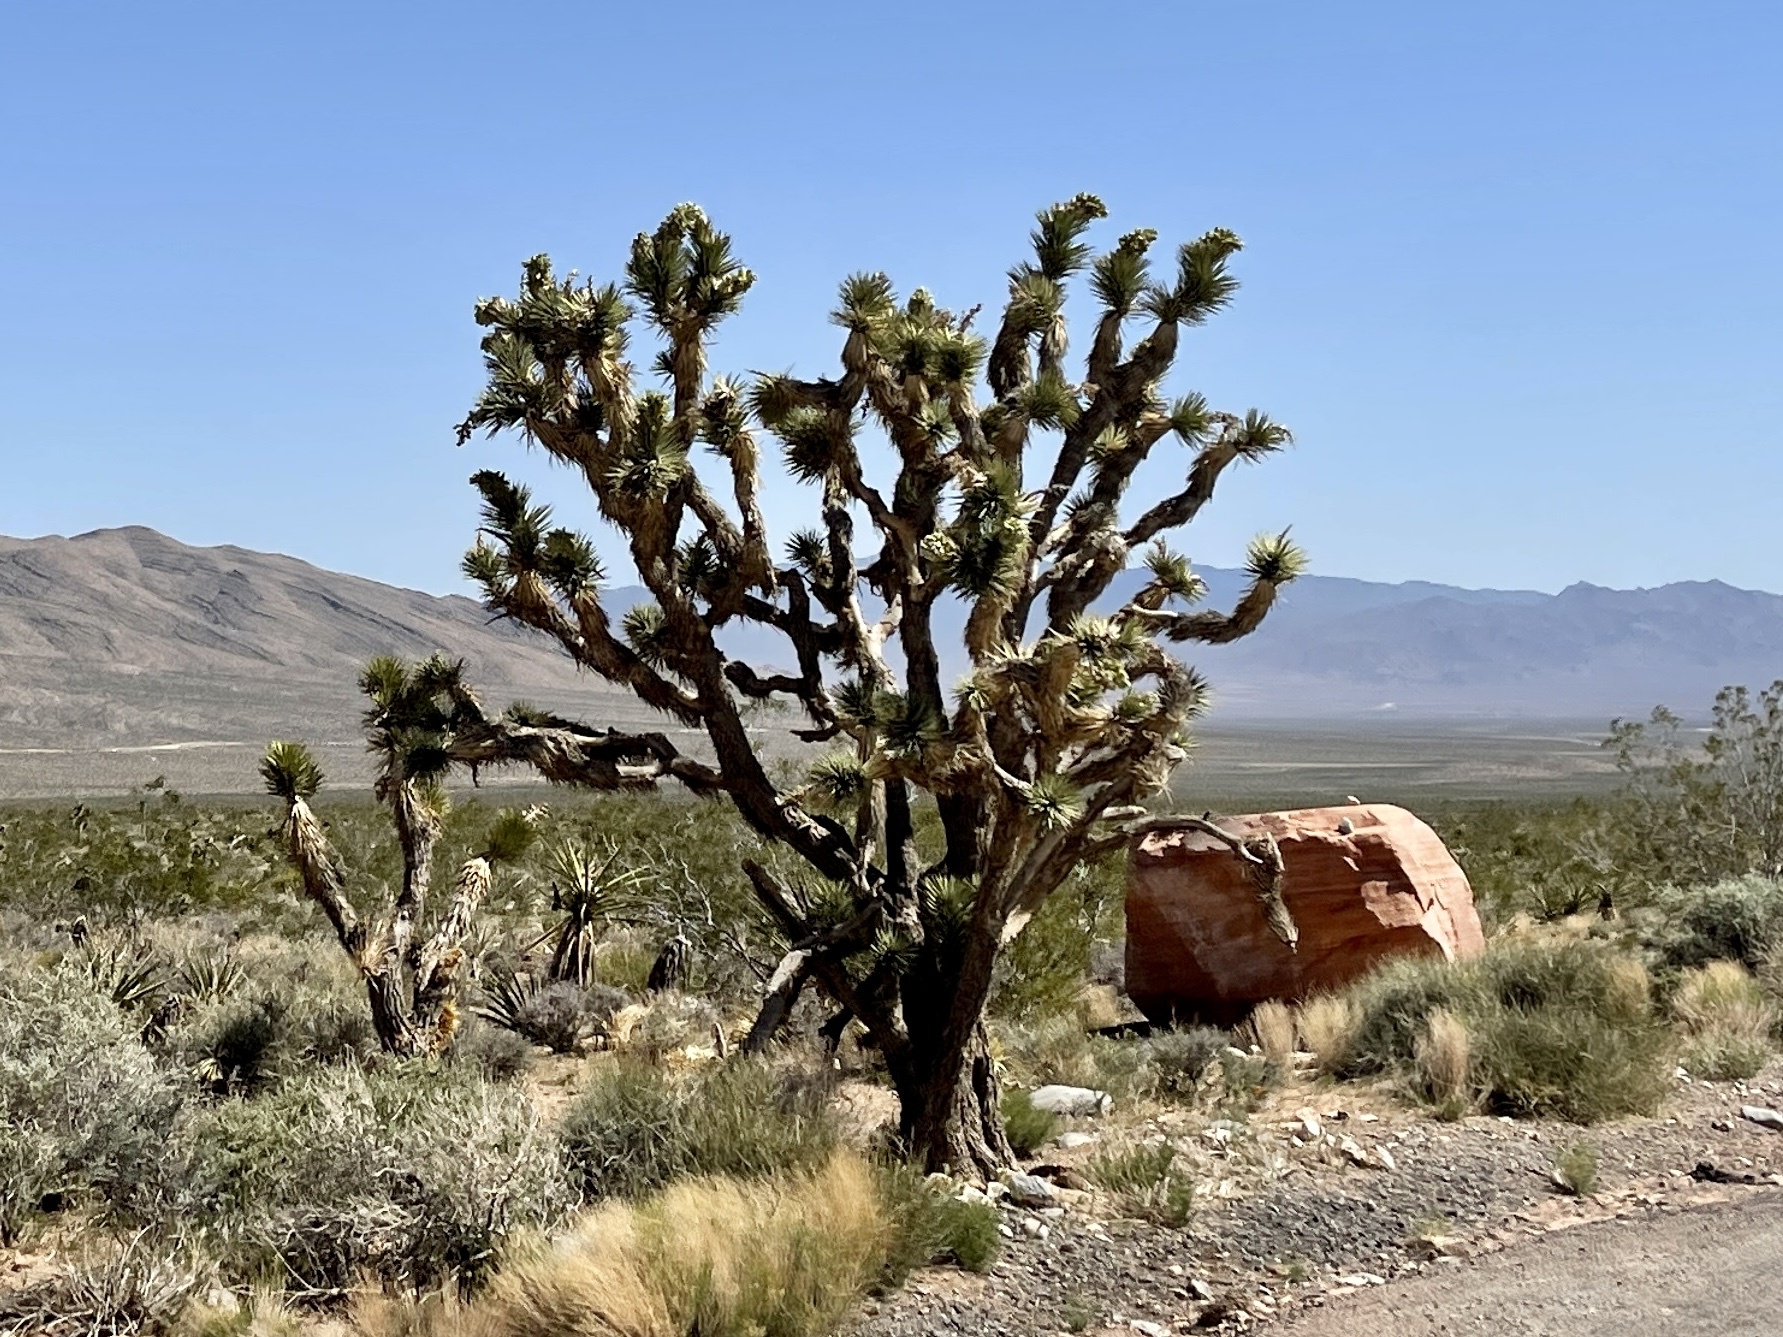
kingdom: Plantae
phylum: Tracheophyta
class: Liliopsida
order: Asparagales
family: Asparagaceae
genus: Yucca
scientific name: Yucca brevifolia
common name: Joshua tree
